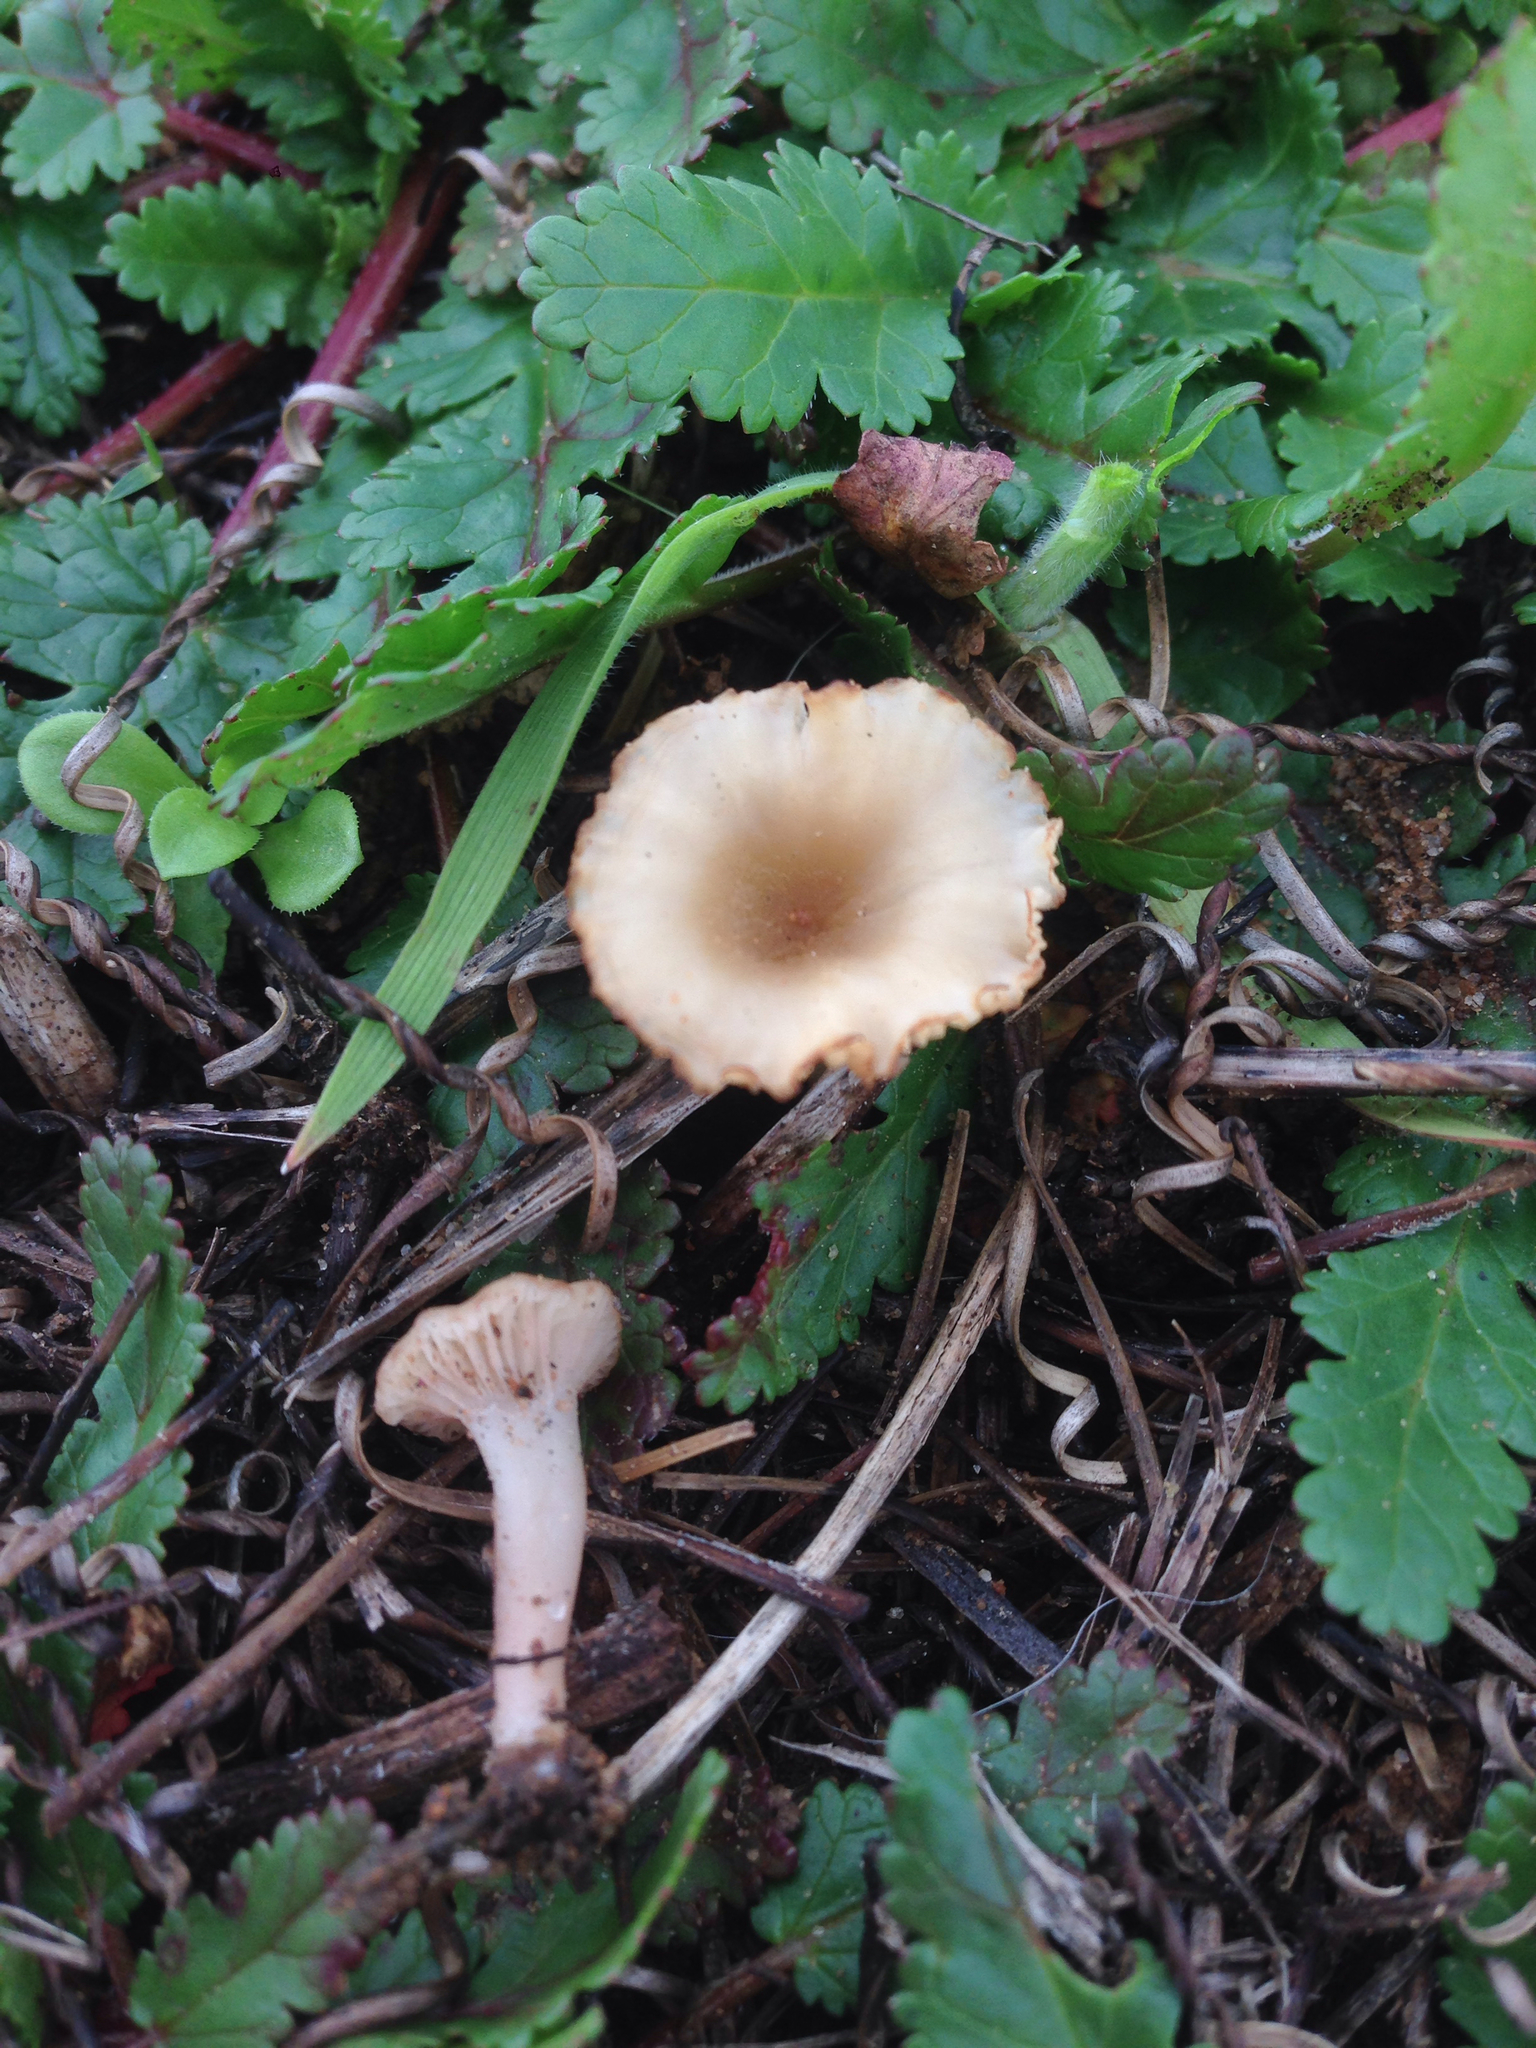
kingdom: Fungi
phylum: Basidiomycota
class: Agaricomycetes
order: Hymenochaetales
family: Rickenellaceae
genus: Contumyces
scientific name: Contumyces rosellus
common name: Rosy navel
